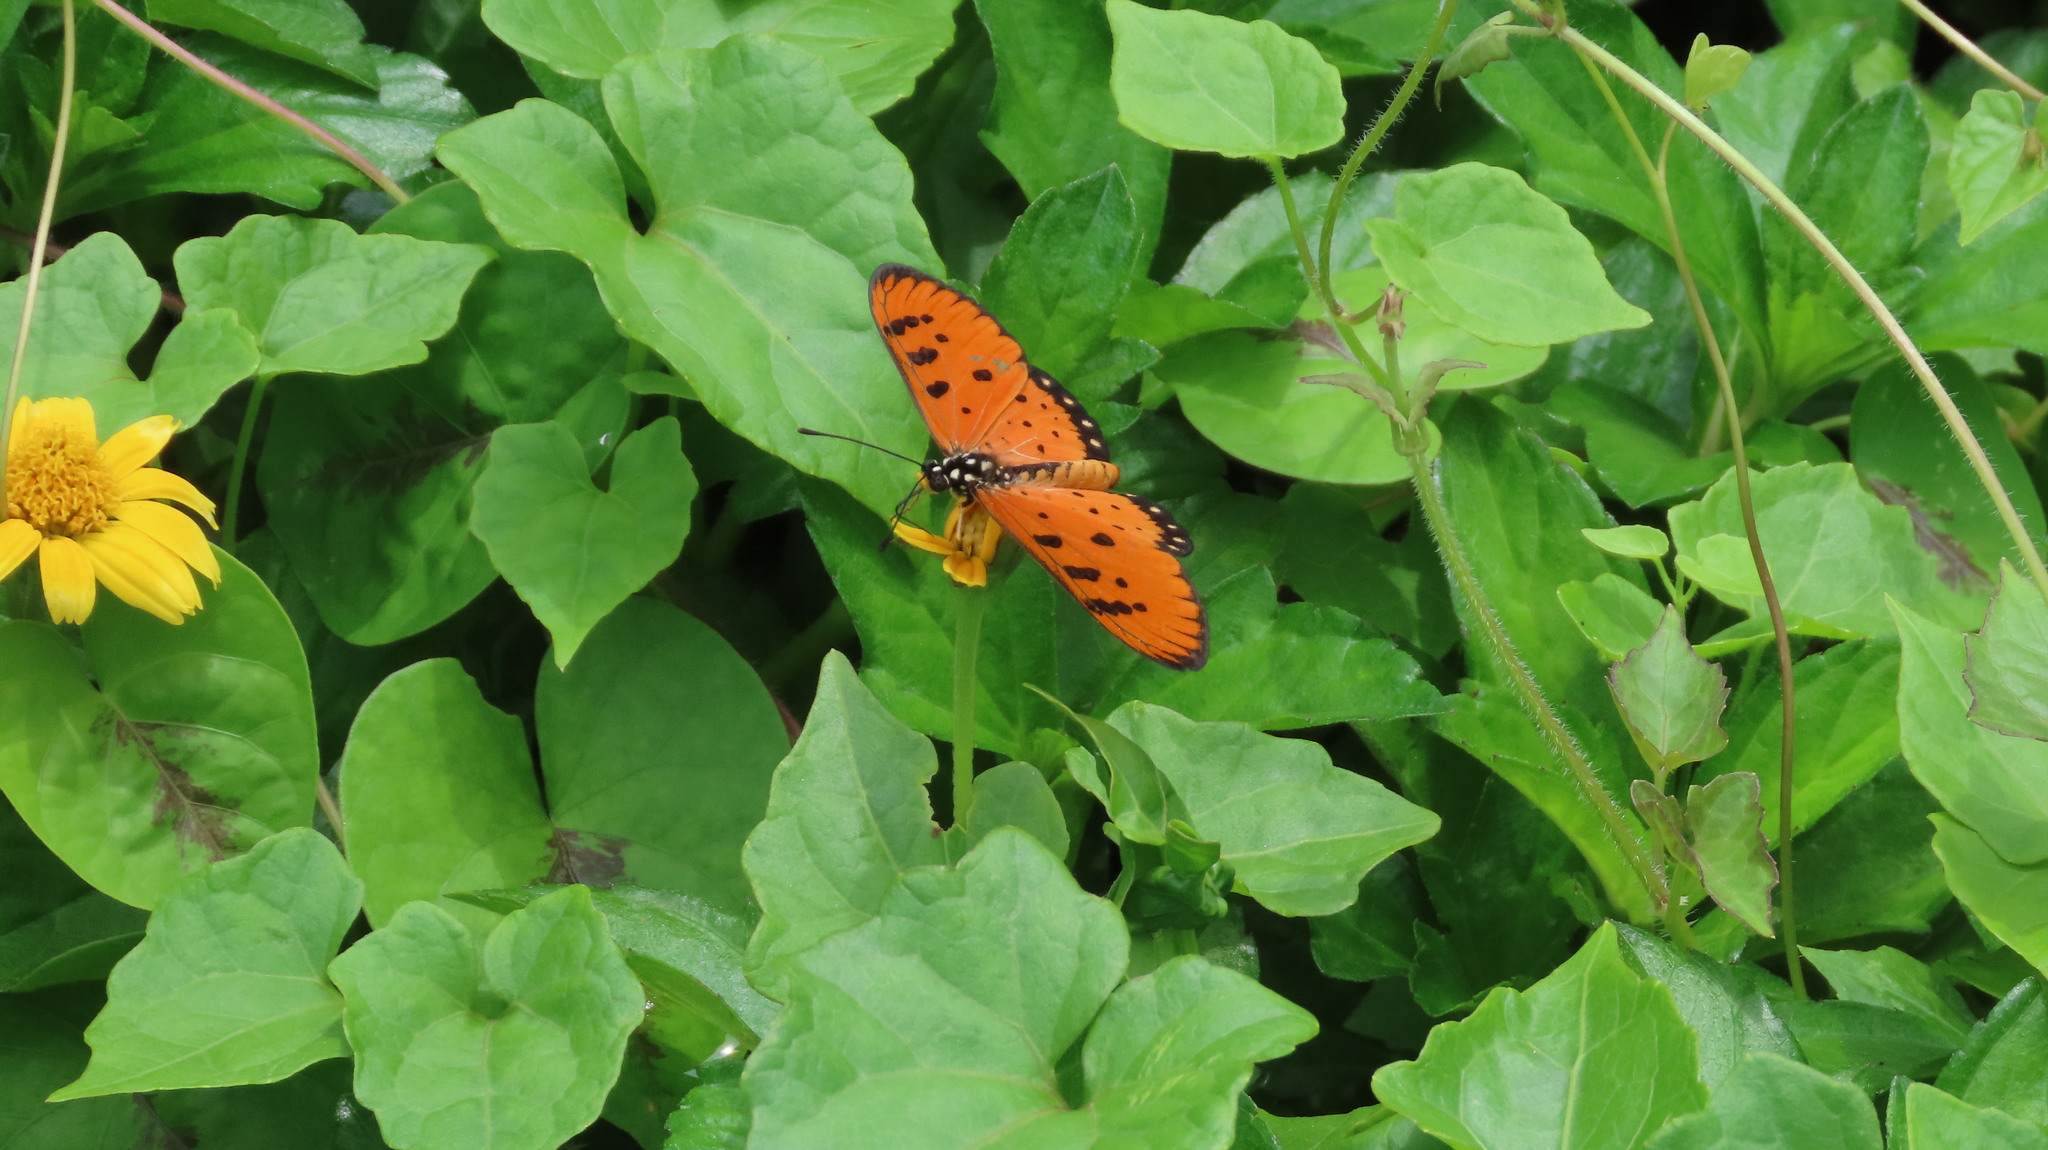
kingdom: Animalia
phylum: Arthropoda
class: Insecta
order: Lepidoptera
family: Nymphalidae
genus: Acraea
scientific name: Acraea terpsicore
